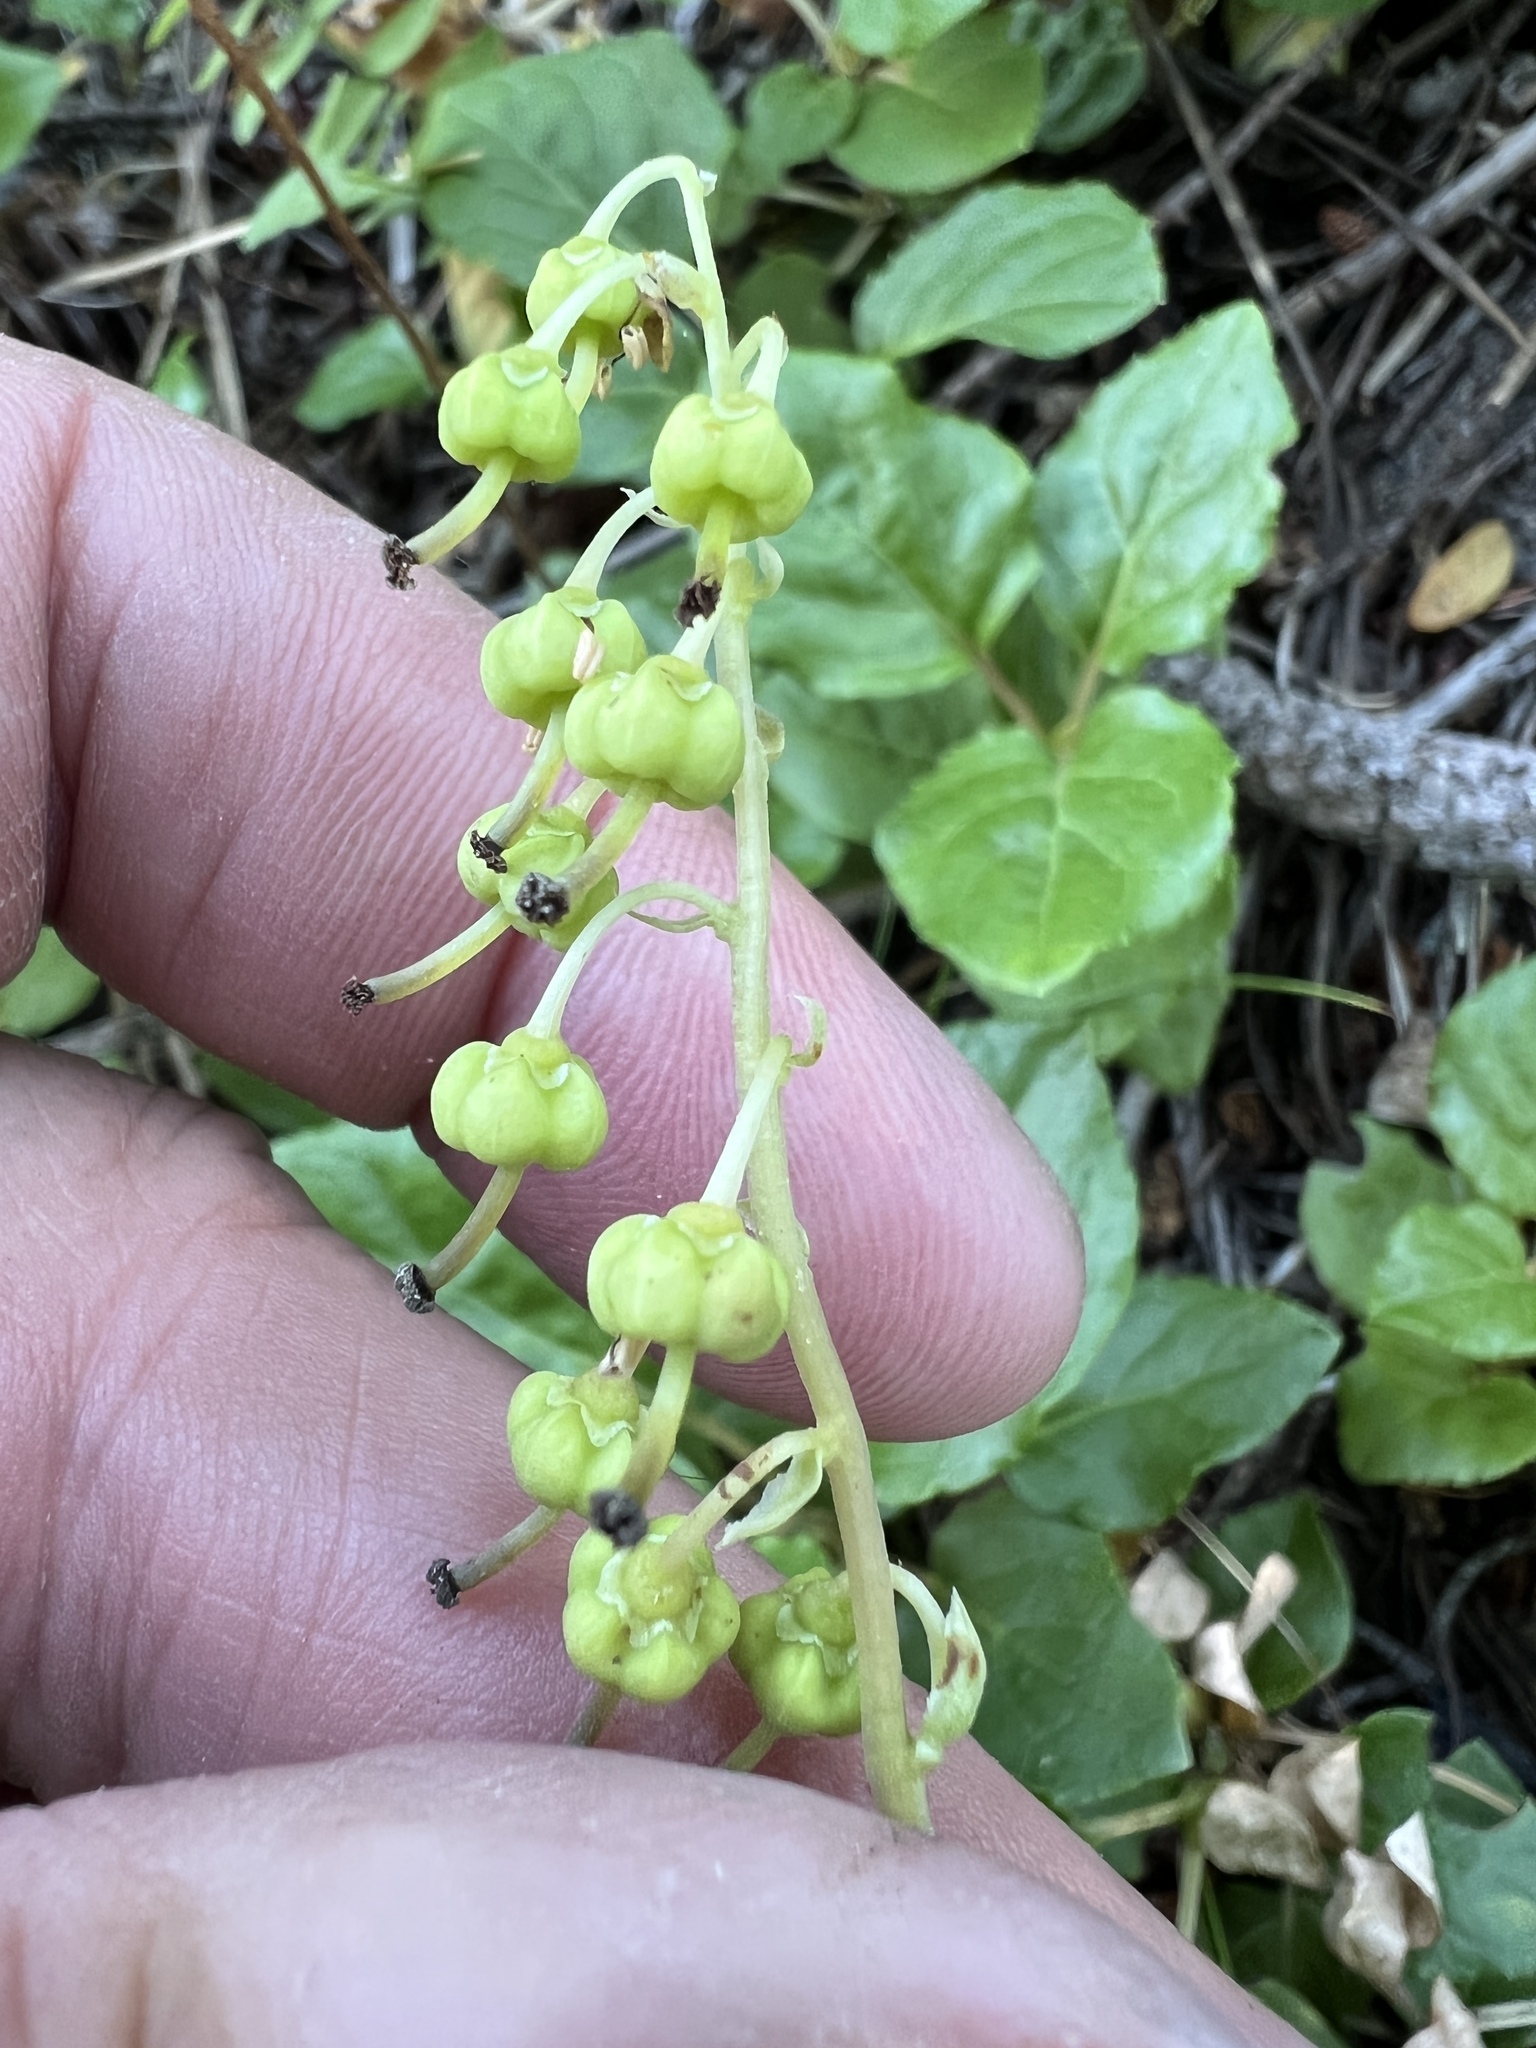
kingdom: Plantae
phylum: Tracheophyta
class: Magnoliopsida
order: Ericales
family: Ericaceae
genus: Orthilia
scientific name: Orthilia secunda
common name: One-sided orthilia
